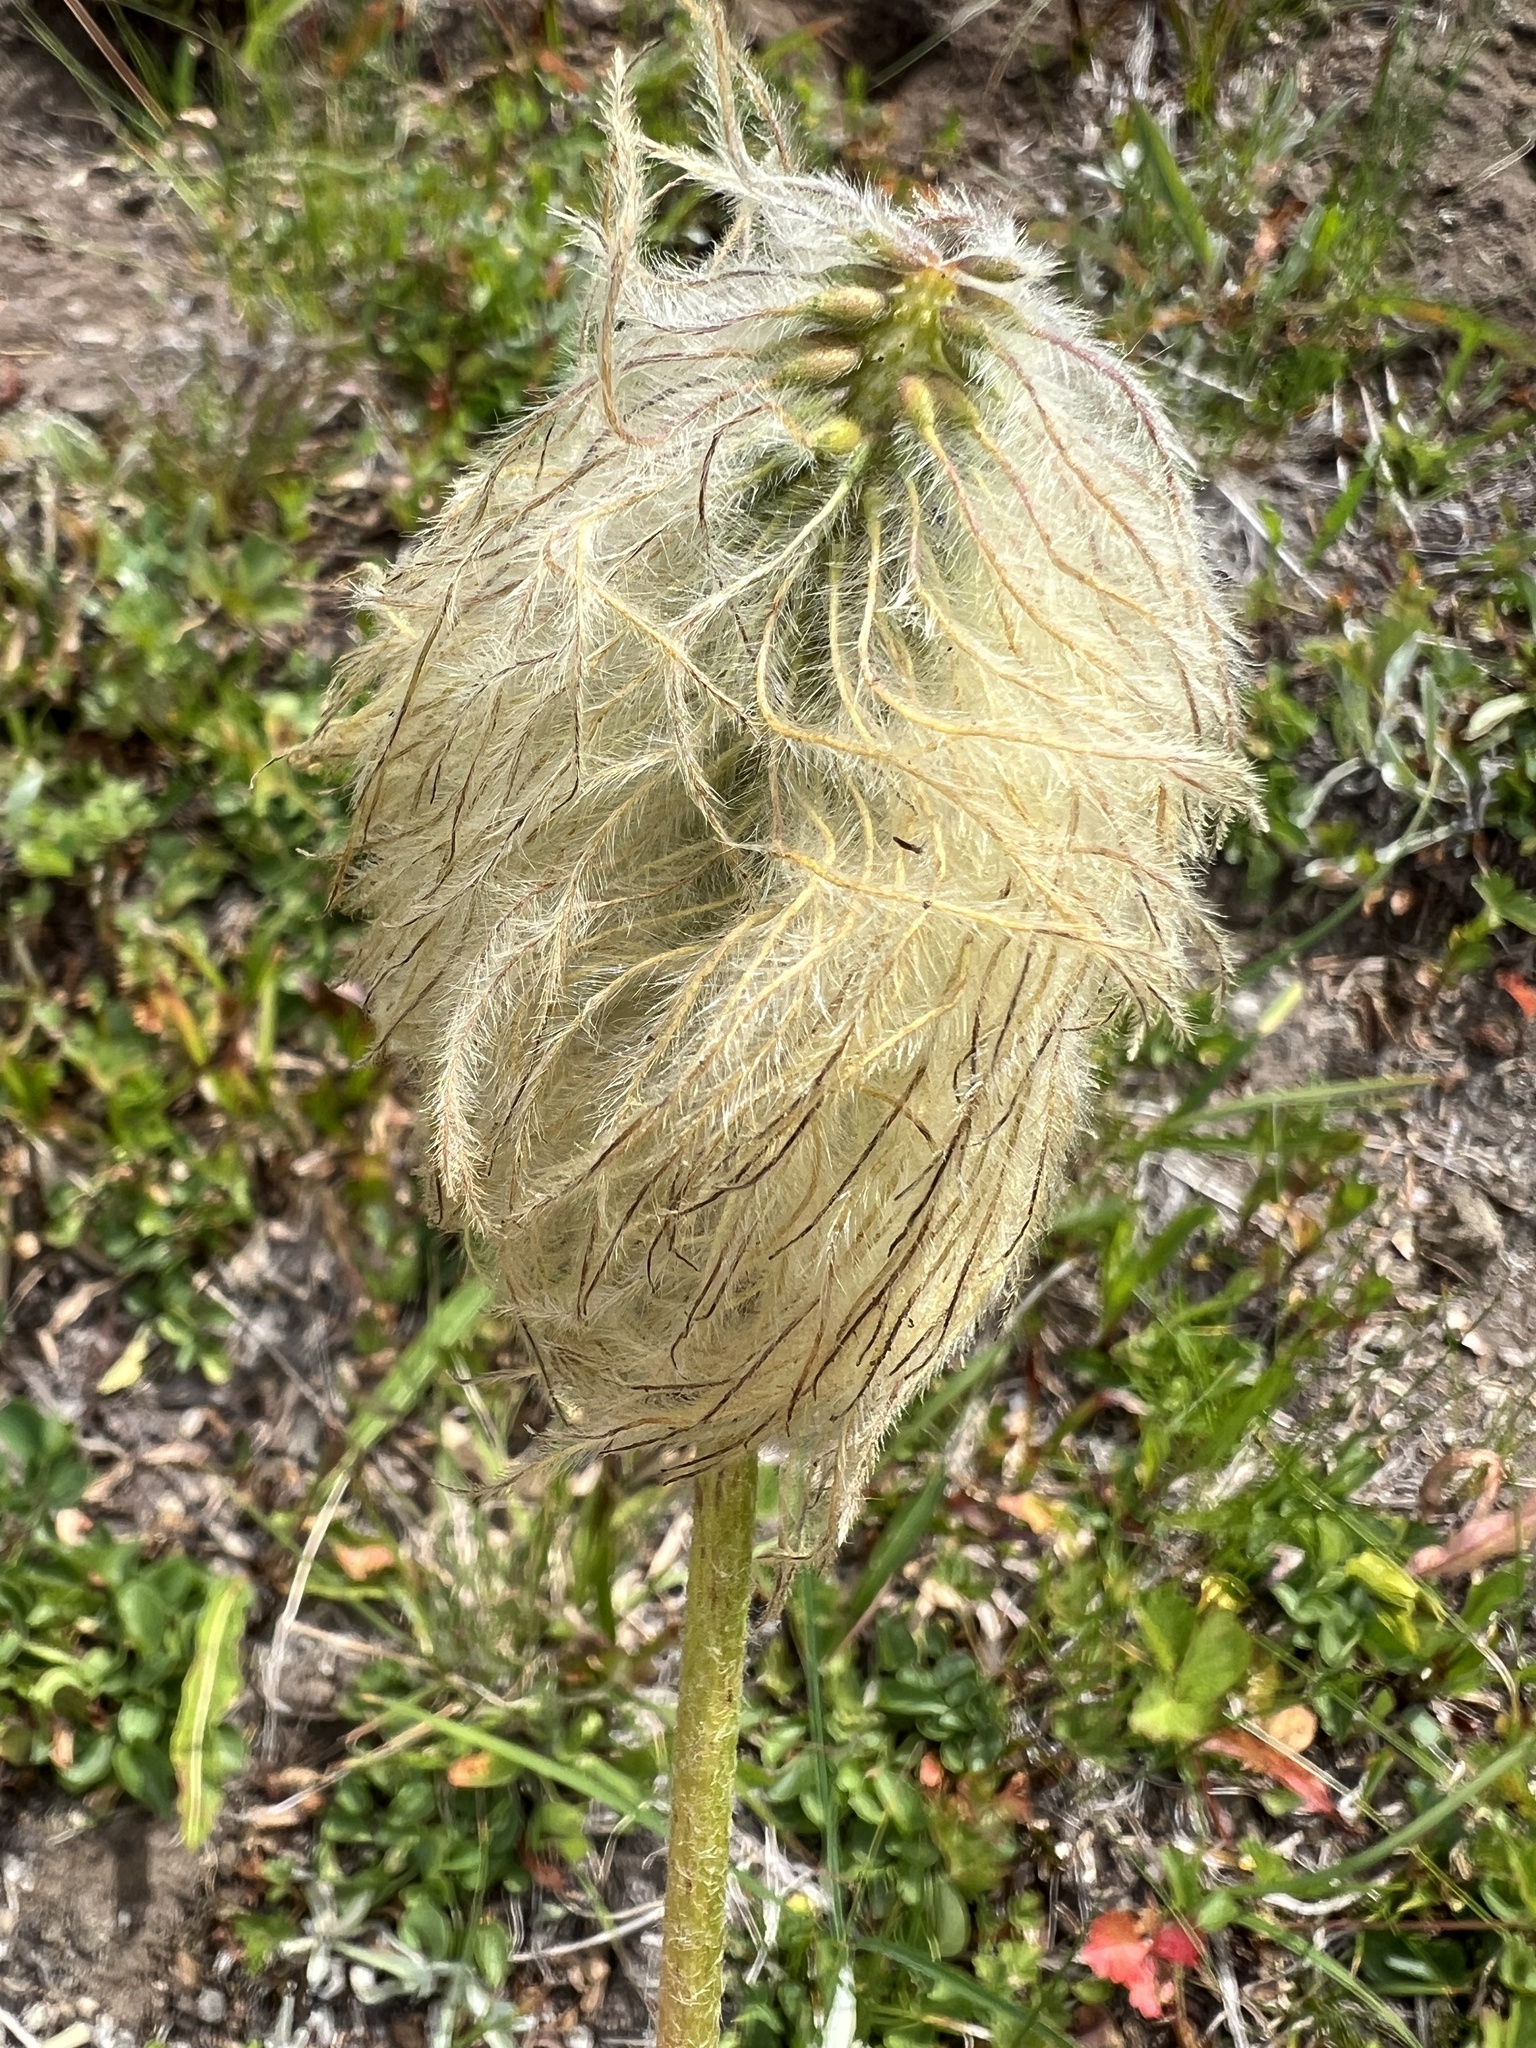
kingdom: Plantae
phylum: Tracheophyta
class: Magnoliopsida
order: Ranunculales
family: Ranunculaceae
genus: Pulsatilla
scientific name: Pulsatilla occidentalis
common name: Mountain pasqueflower
